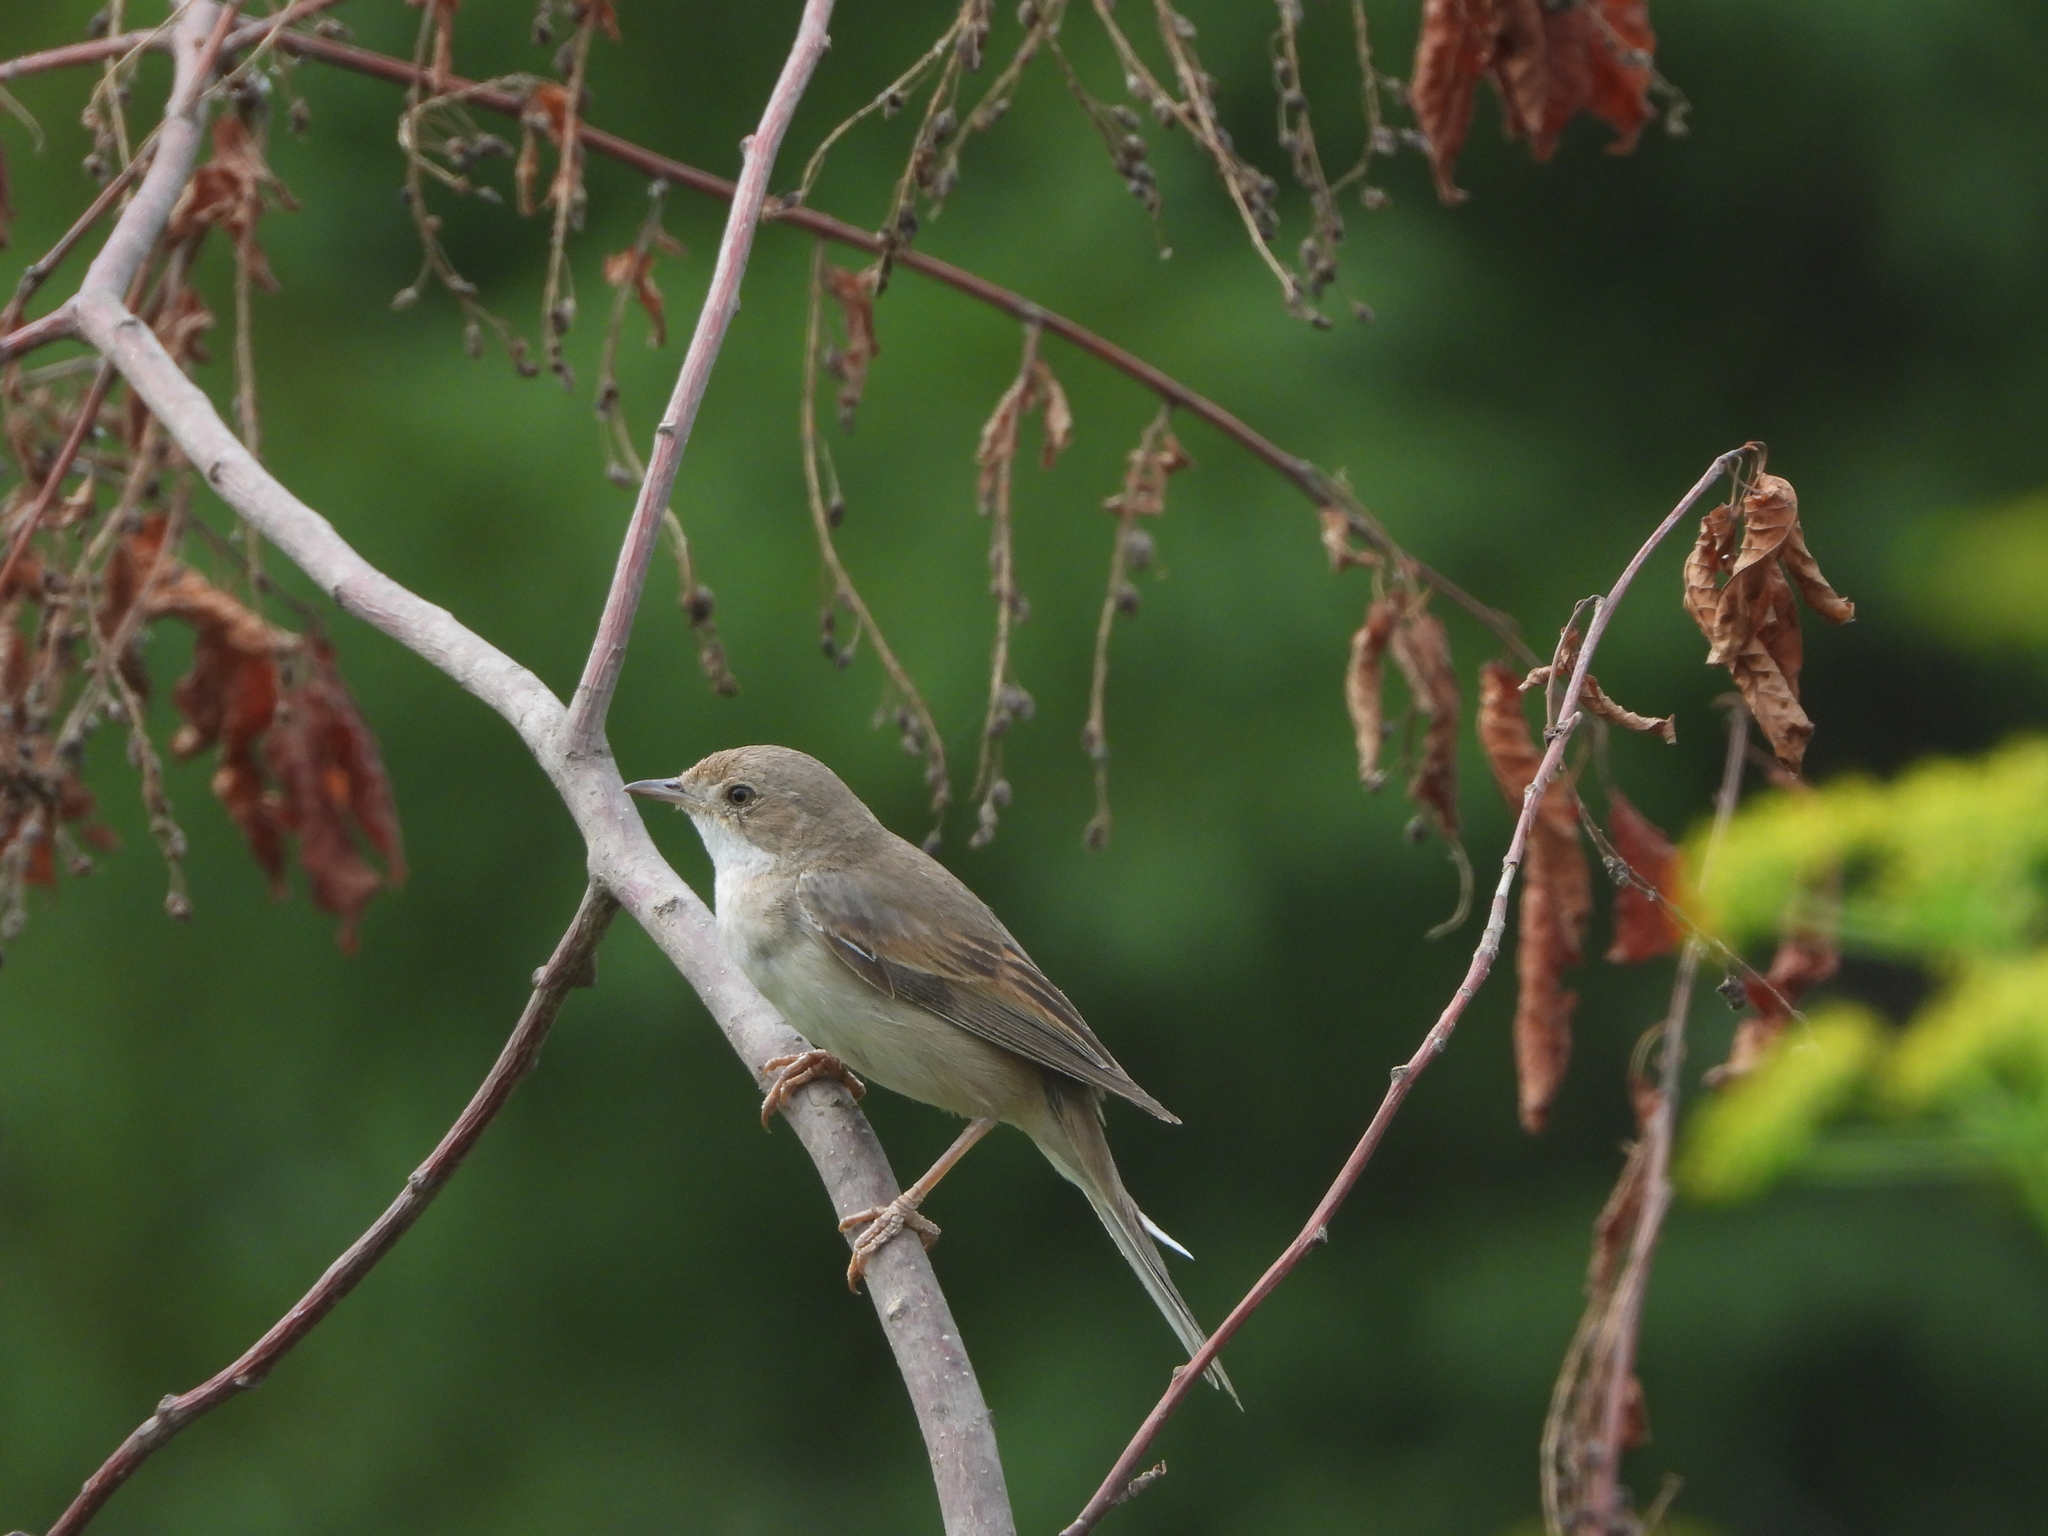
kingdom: Animalia
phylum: Chordata
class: Aves
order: Passeriformes
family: Sylviidae
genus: Sylvia
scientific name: Sylvia communis
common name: Common whitethroat
